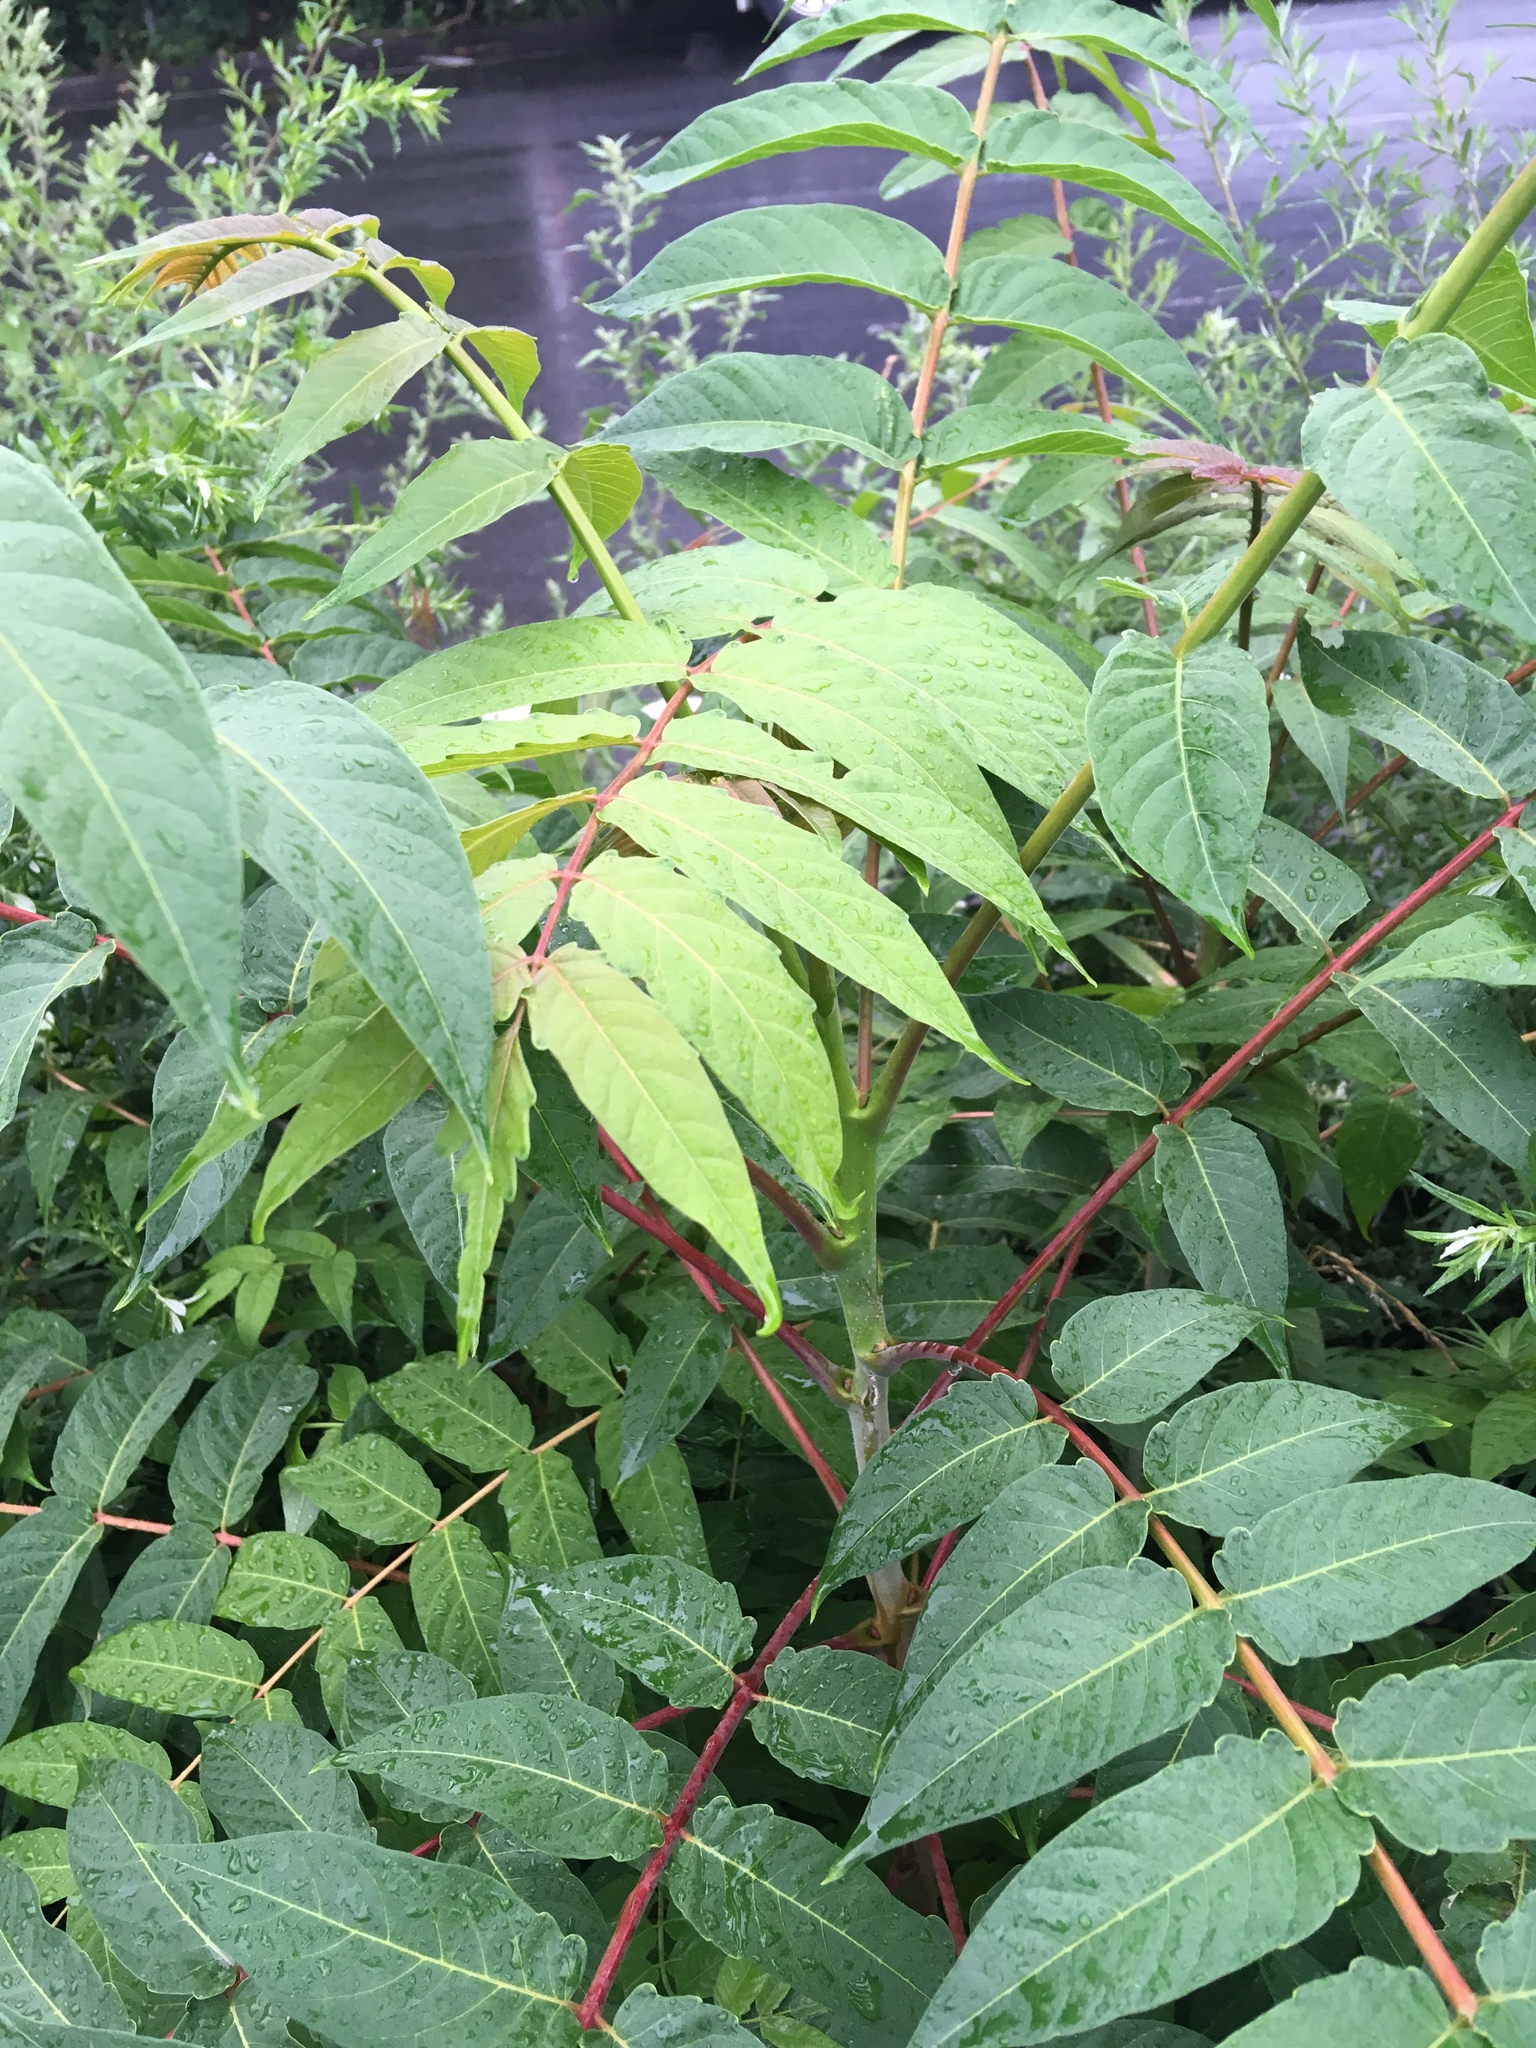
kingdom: Plantae
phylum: Tracheophyta
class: Magnoliopsida
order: Sapindales
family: Simaroubaceae
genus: Ailanthus
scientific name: Ailanthus altissima
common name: Tree-of-heaven
